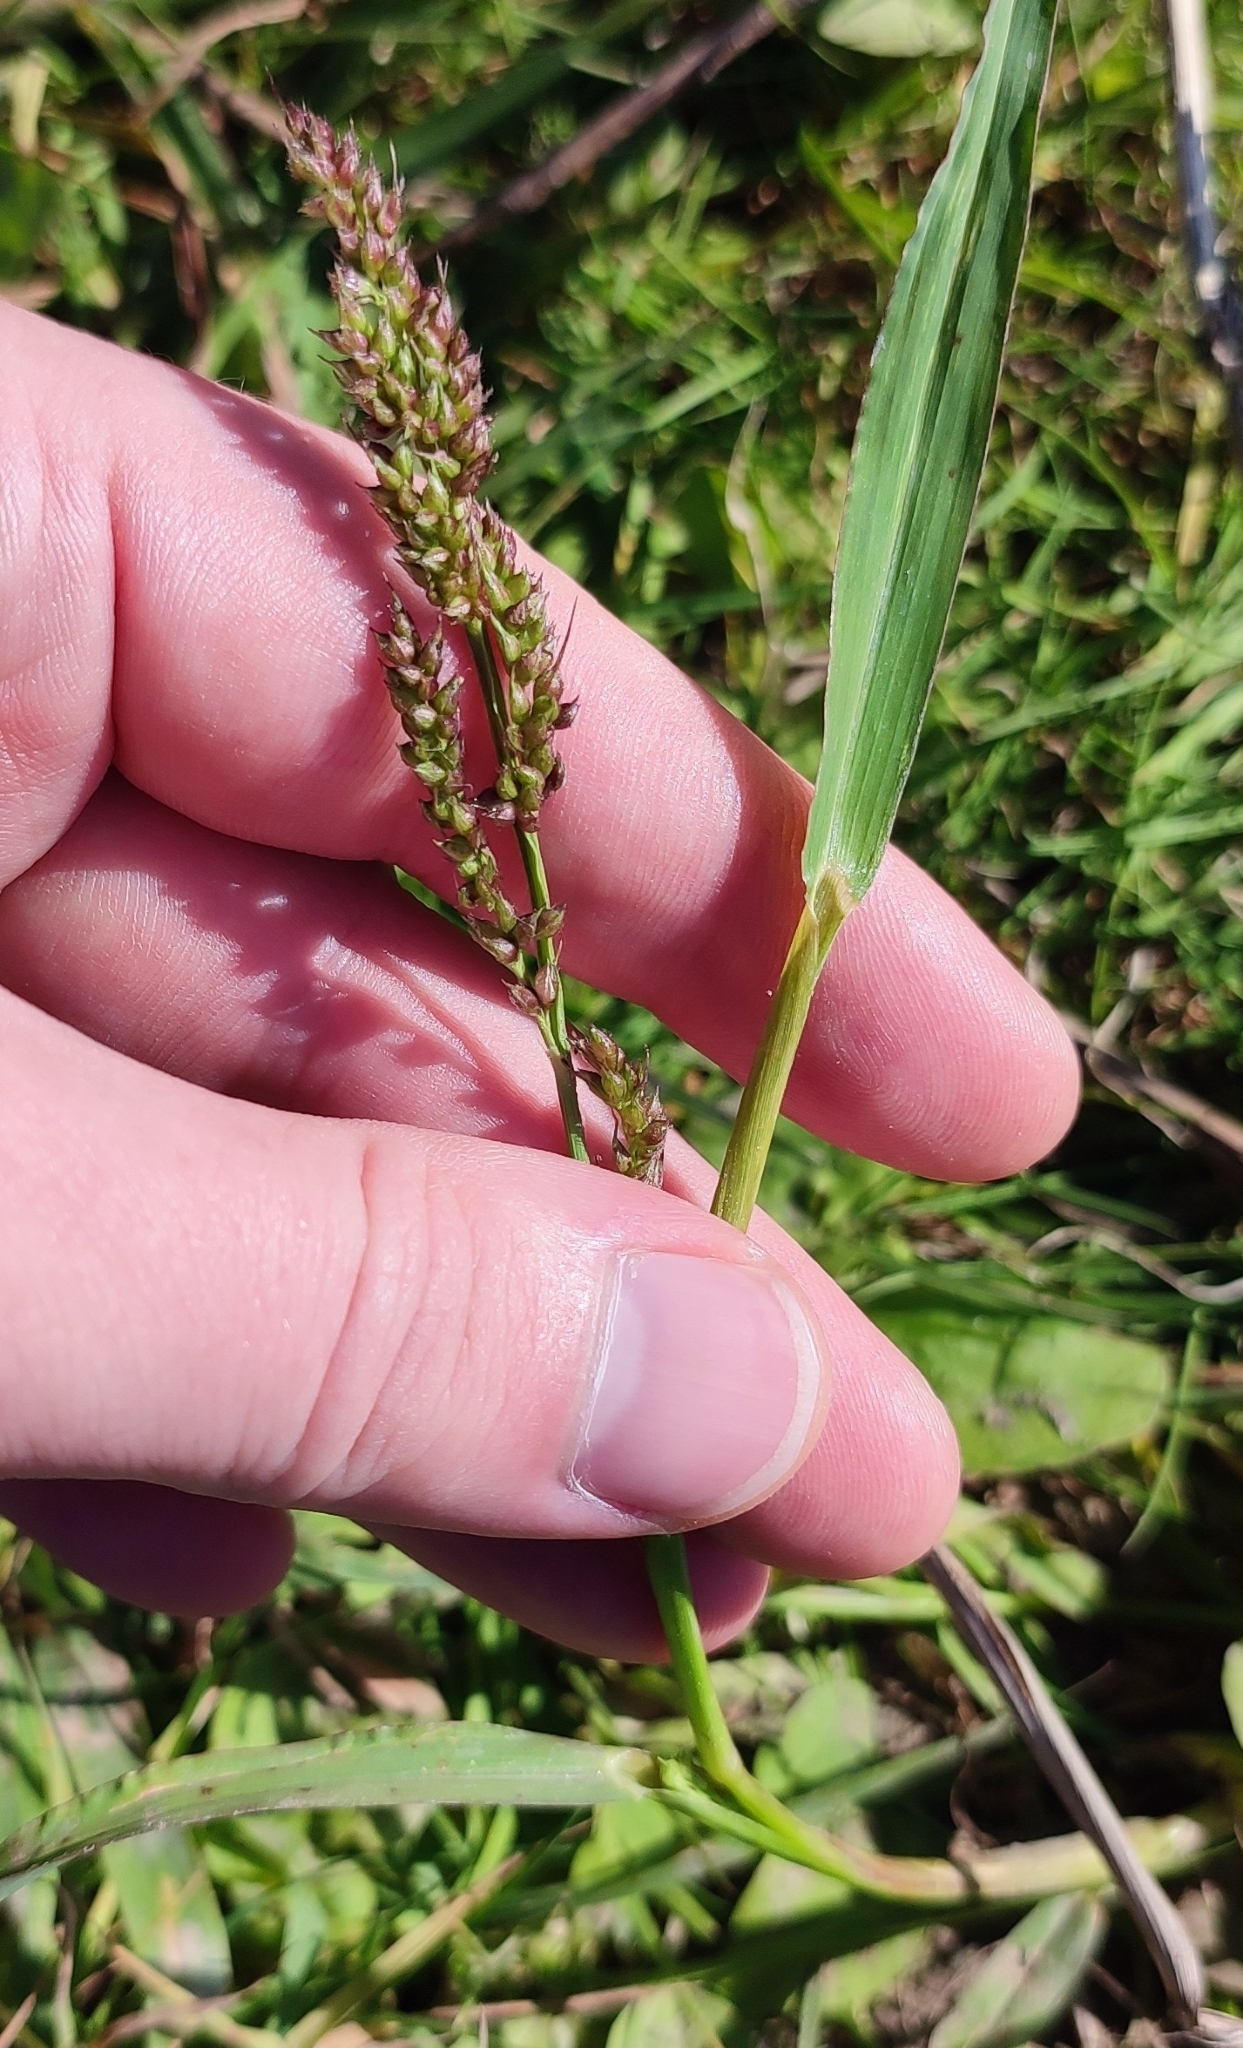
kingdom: Plantae
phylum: Tracheophyta
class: Liliopsida
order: Poales
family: Poaceae
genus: Echinochloa
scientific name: Echinochloa crus-galli
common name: Cockspur
